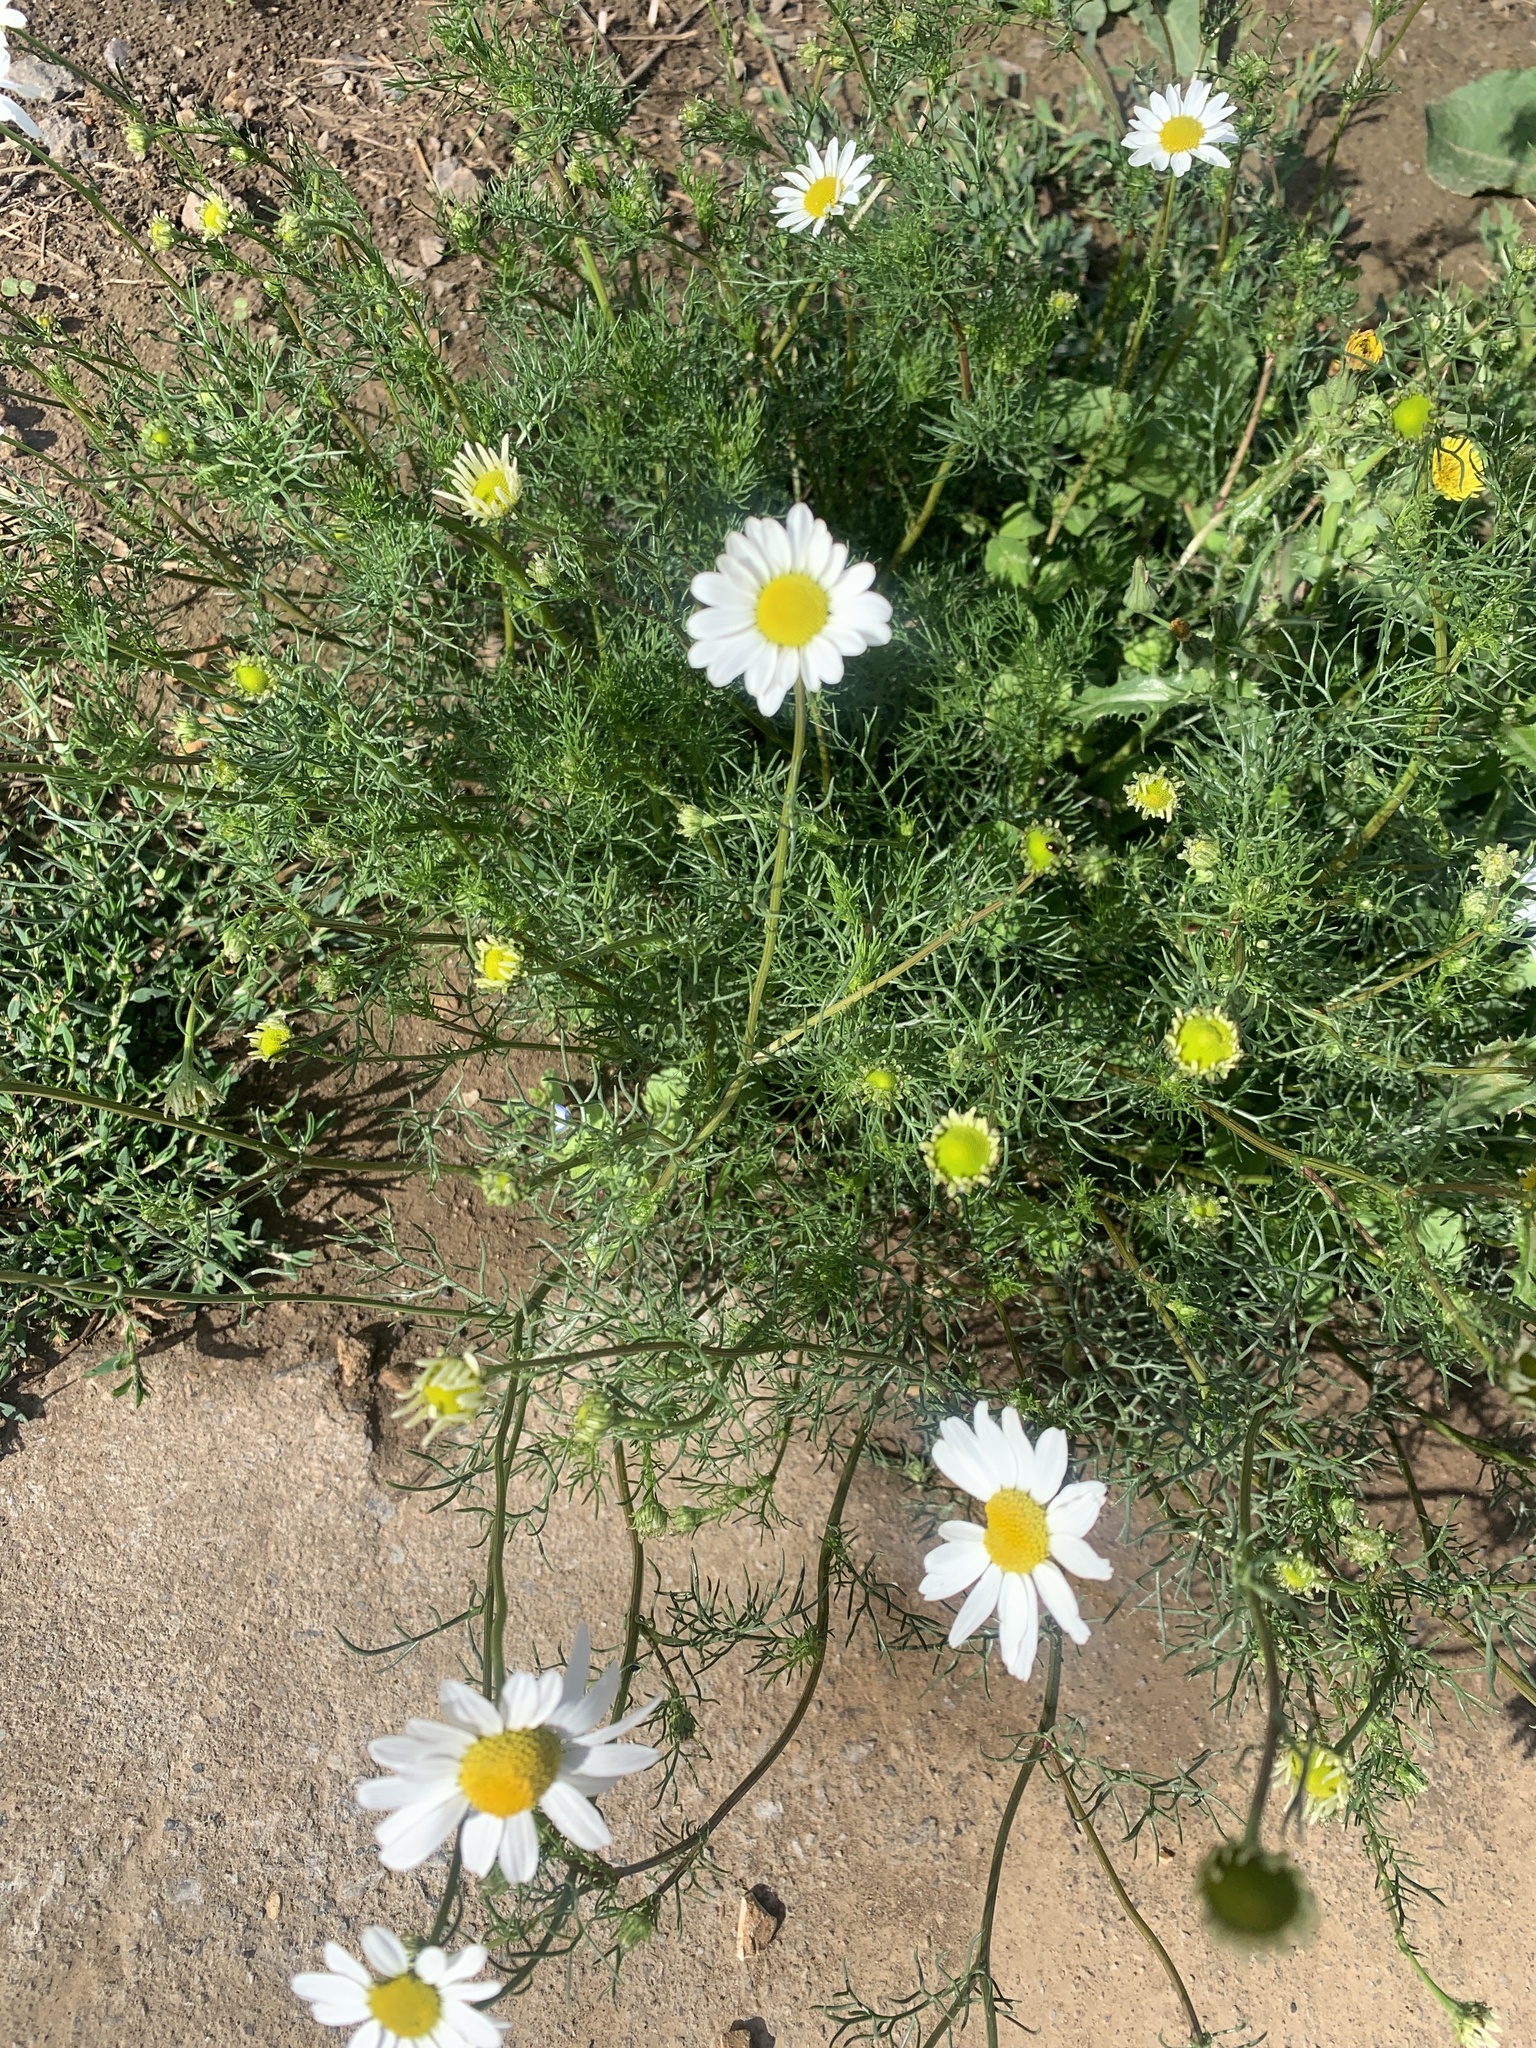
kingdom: Plantae
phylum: Tracheophyta
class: Magnoliopsida
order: Asterales
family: Asteraceae
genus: Tripleurospermum
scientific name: Tripleurospermum inodorum
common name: Scentless mayweed
